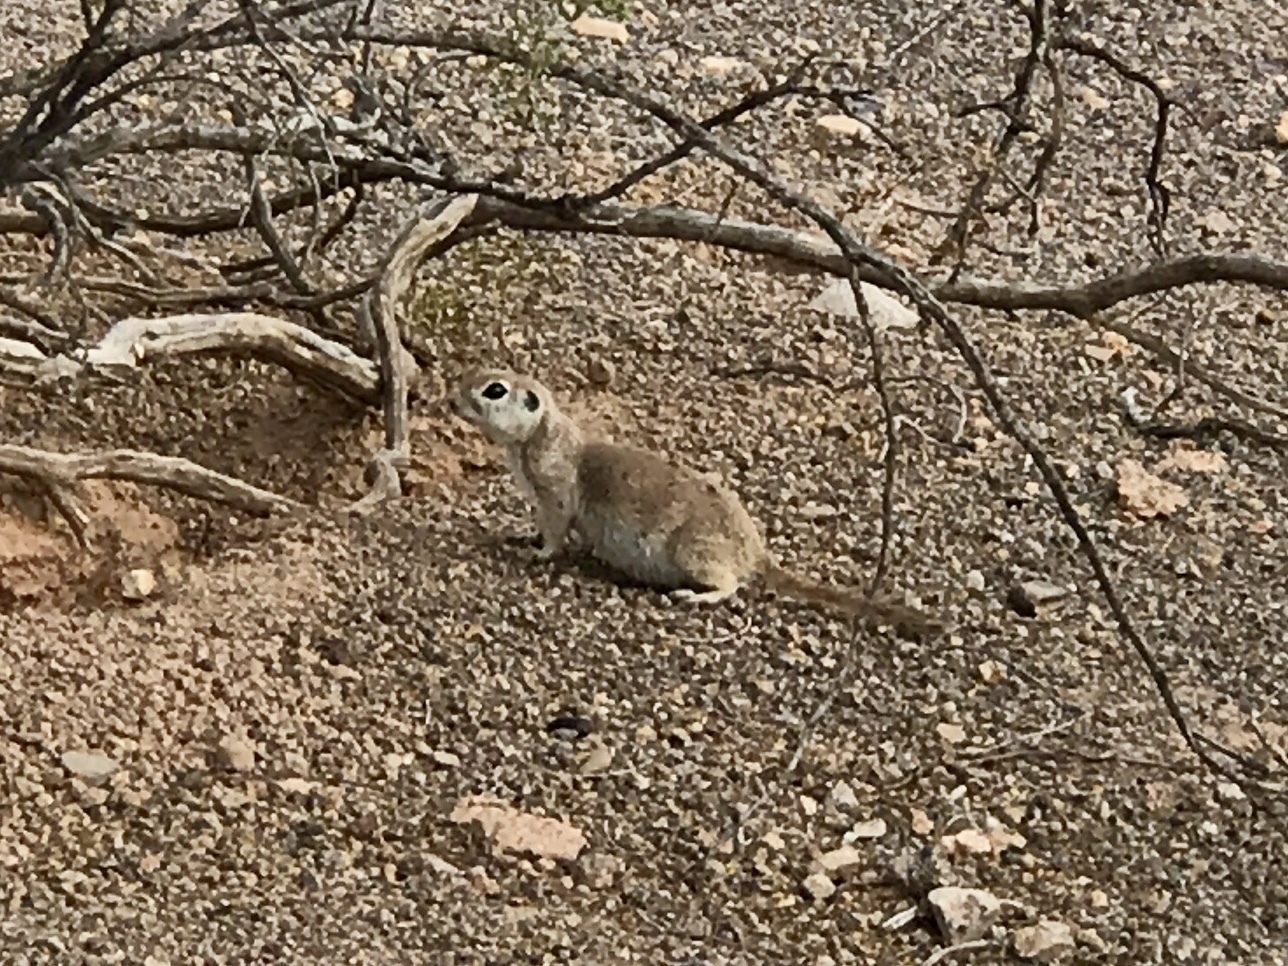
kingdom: Animalia
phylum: Chordata
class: Mammalia
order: Rodentia
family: Sciuridae
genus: Xerospermophilus
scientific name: Xerospermophilus tereticaudus
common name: Round-tailed ground squirrel
